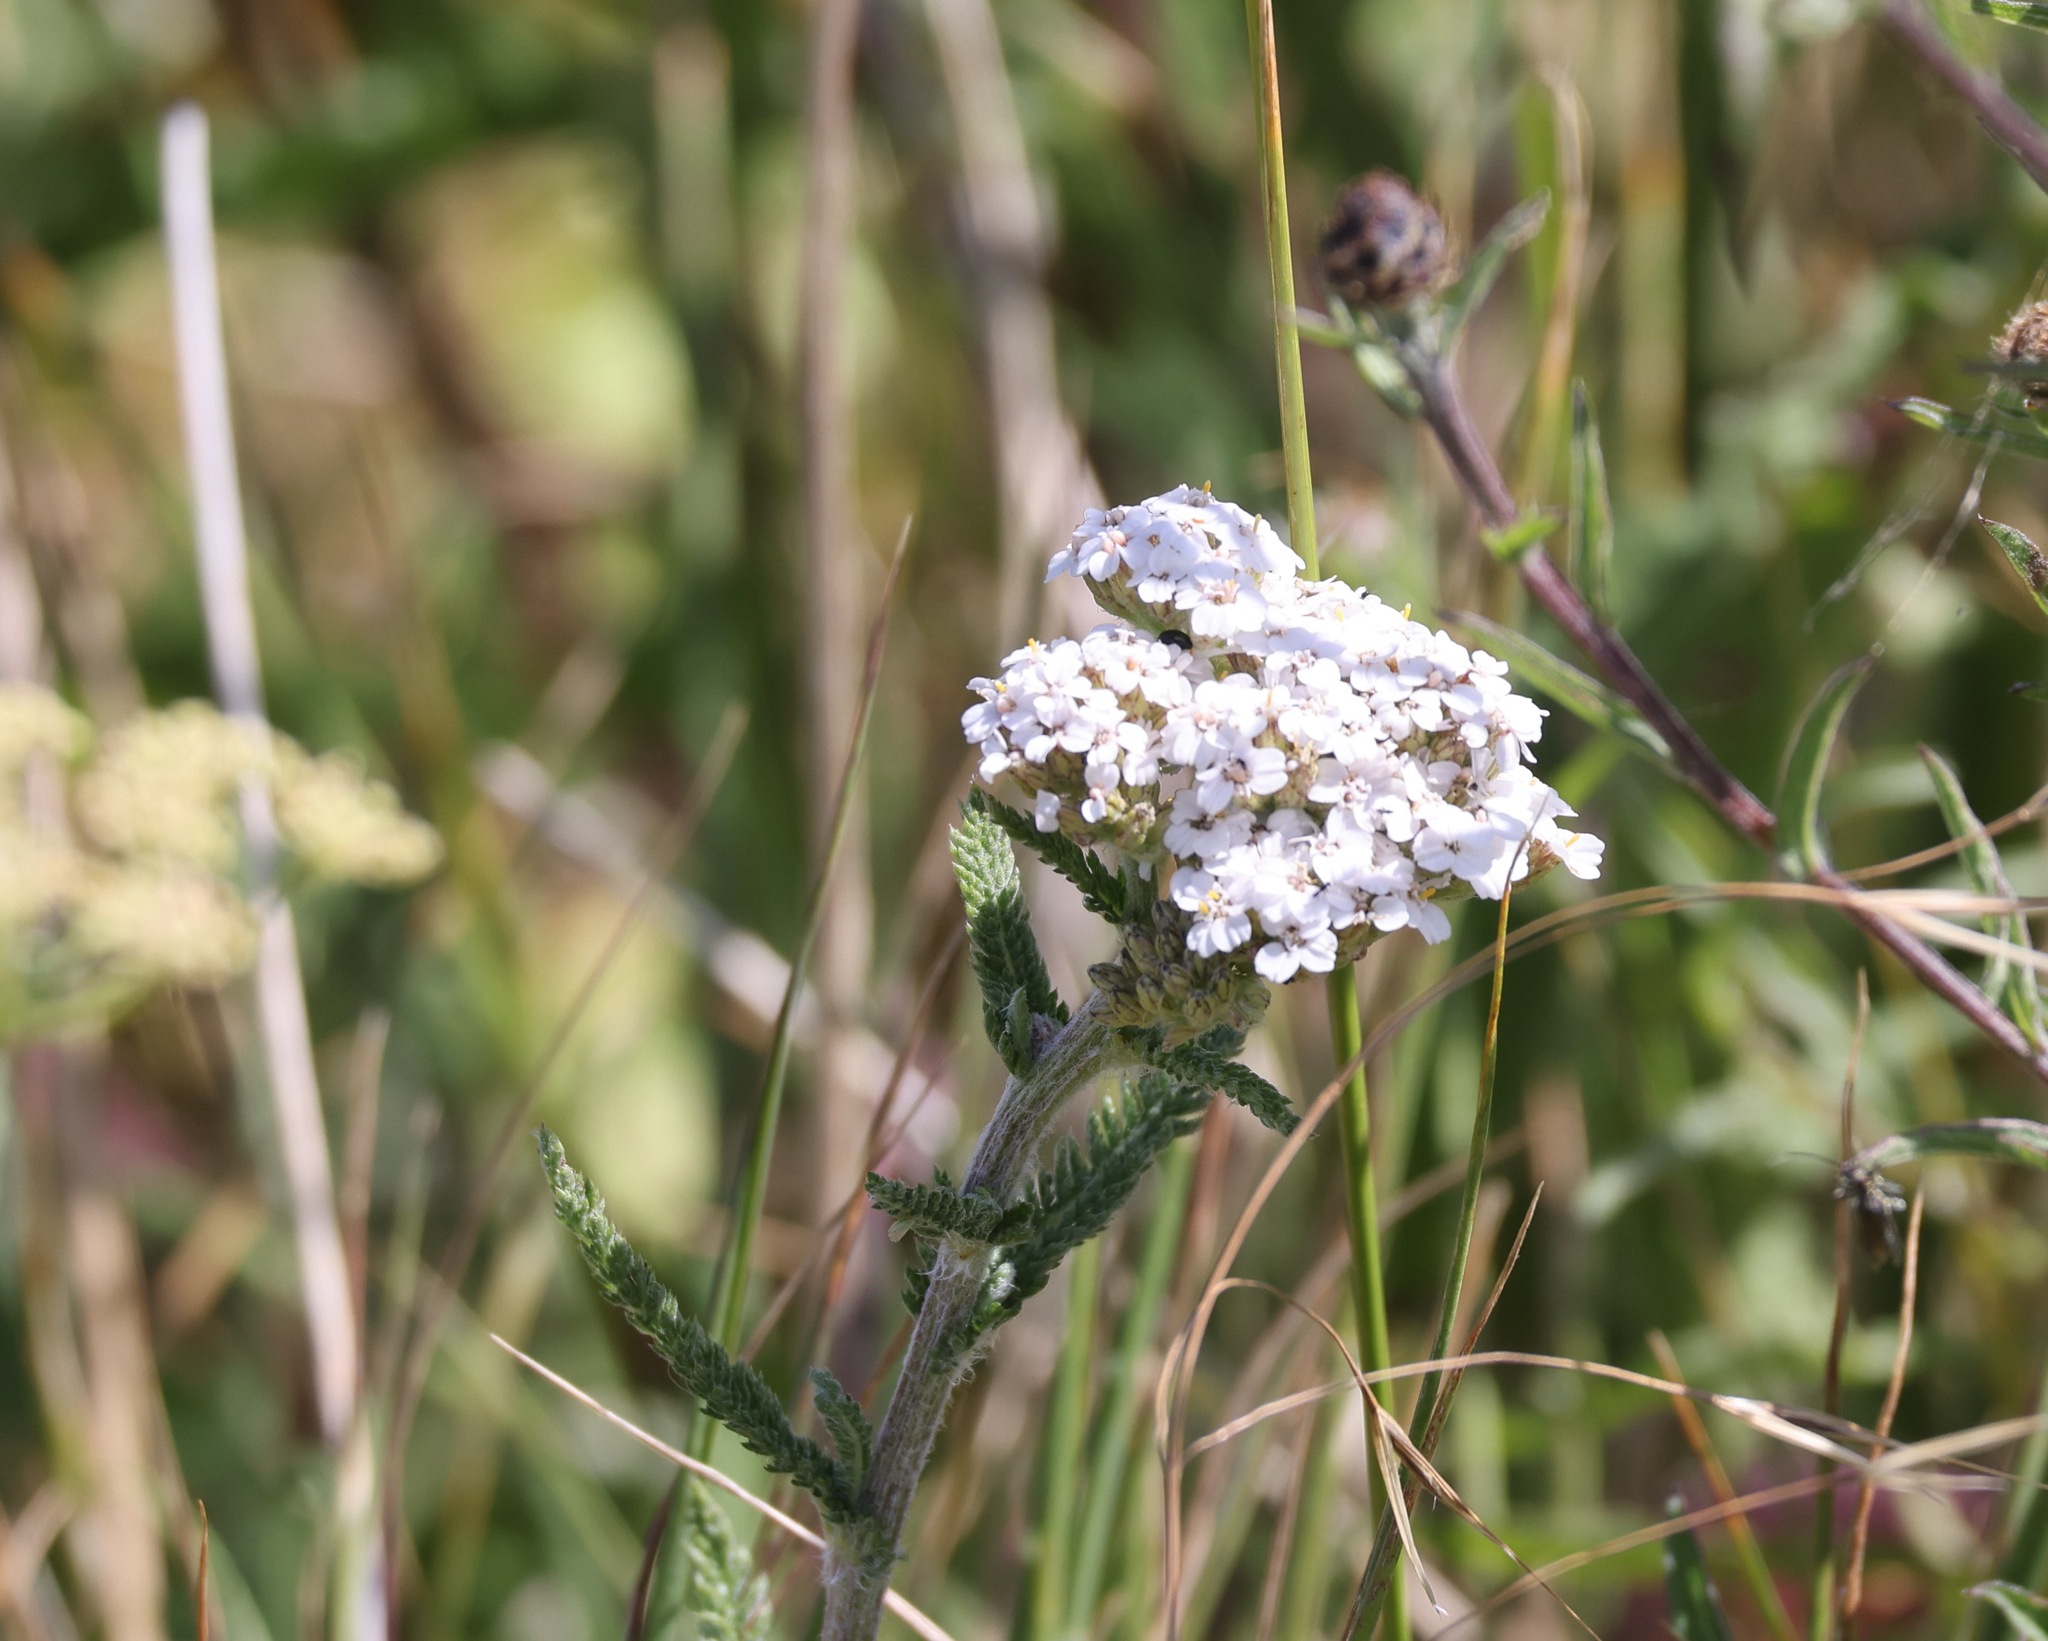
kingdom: Plantae
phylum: Tracheophyta
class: Magnoliopsida
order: Asterales
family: Asteraceae
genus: Achillea
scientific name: Achillea millefolium
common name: Yarrow
